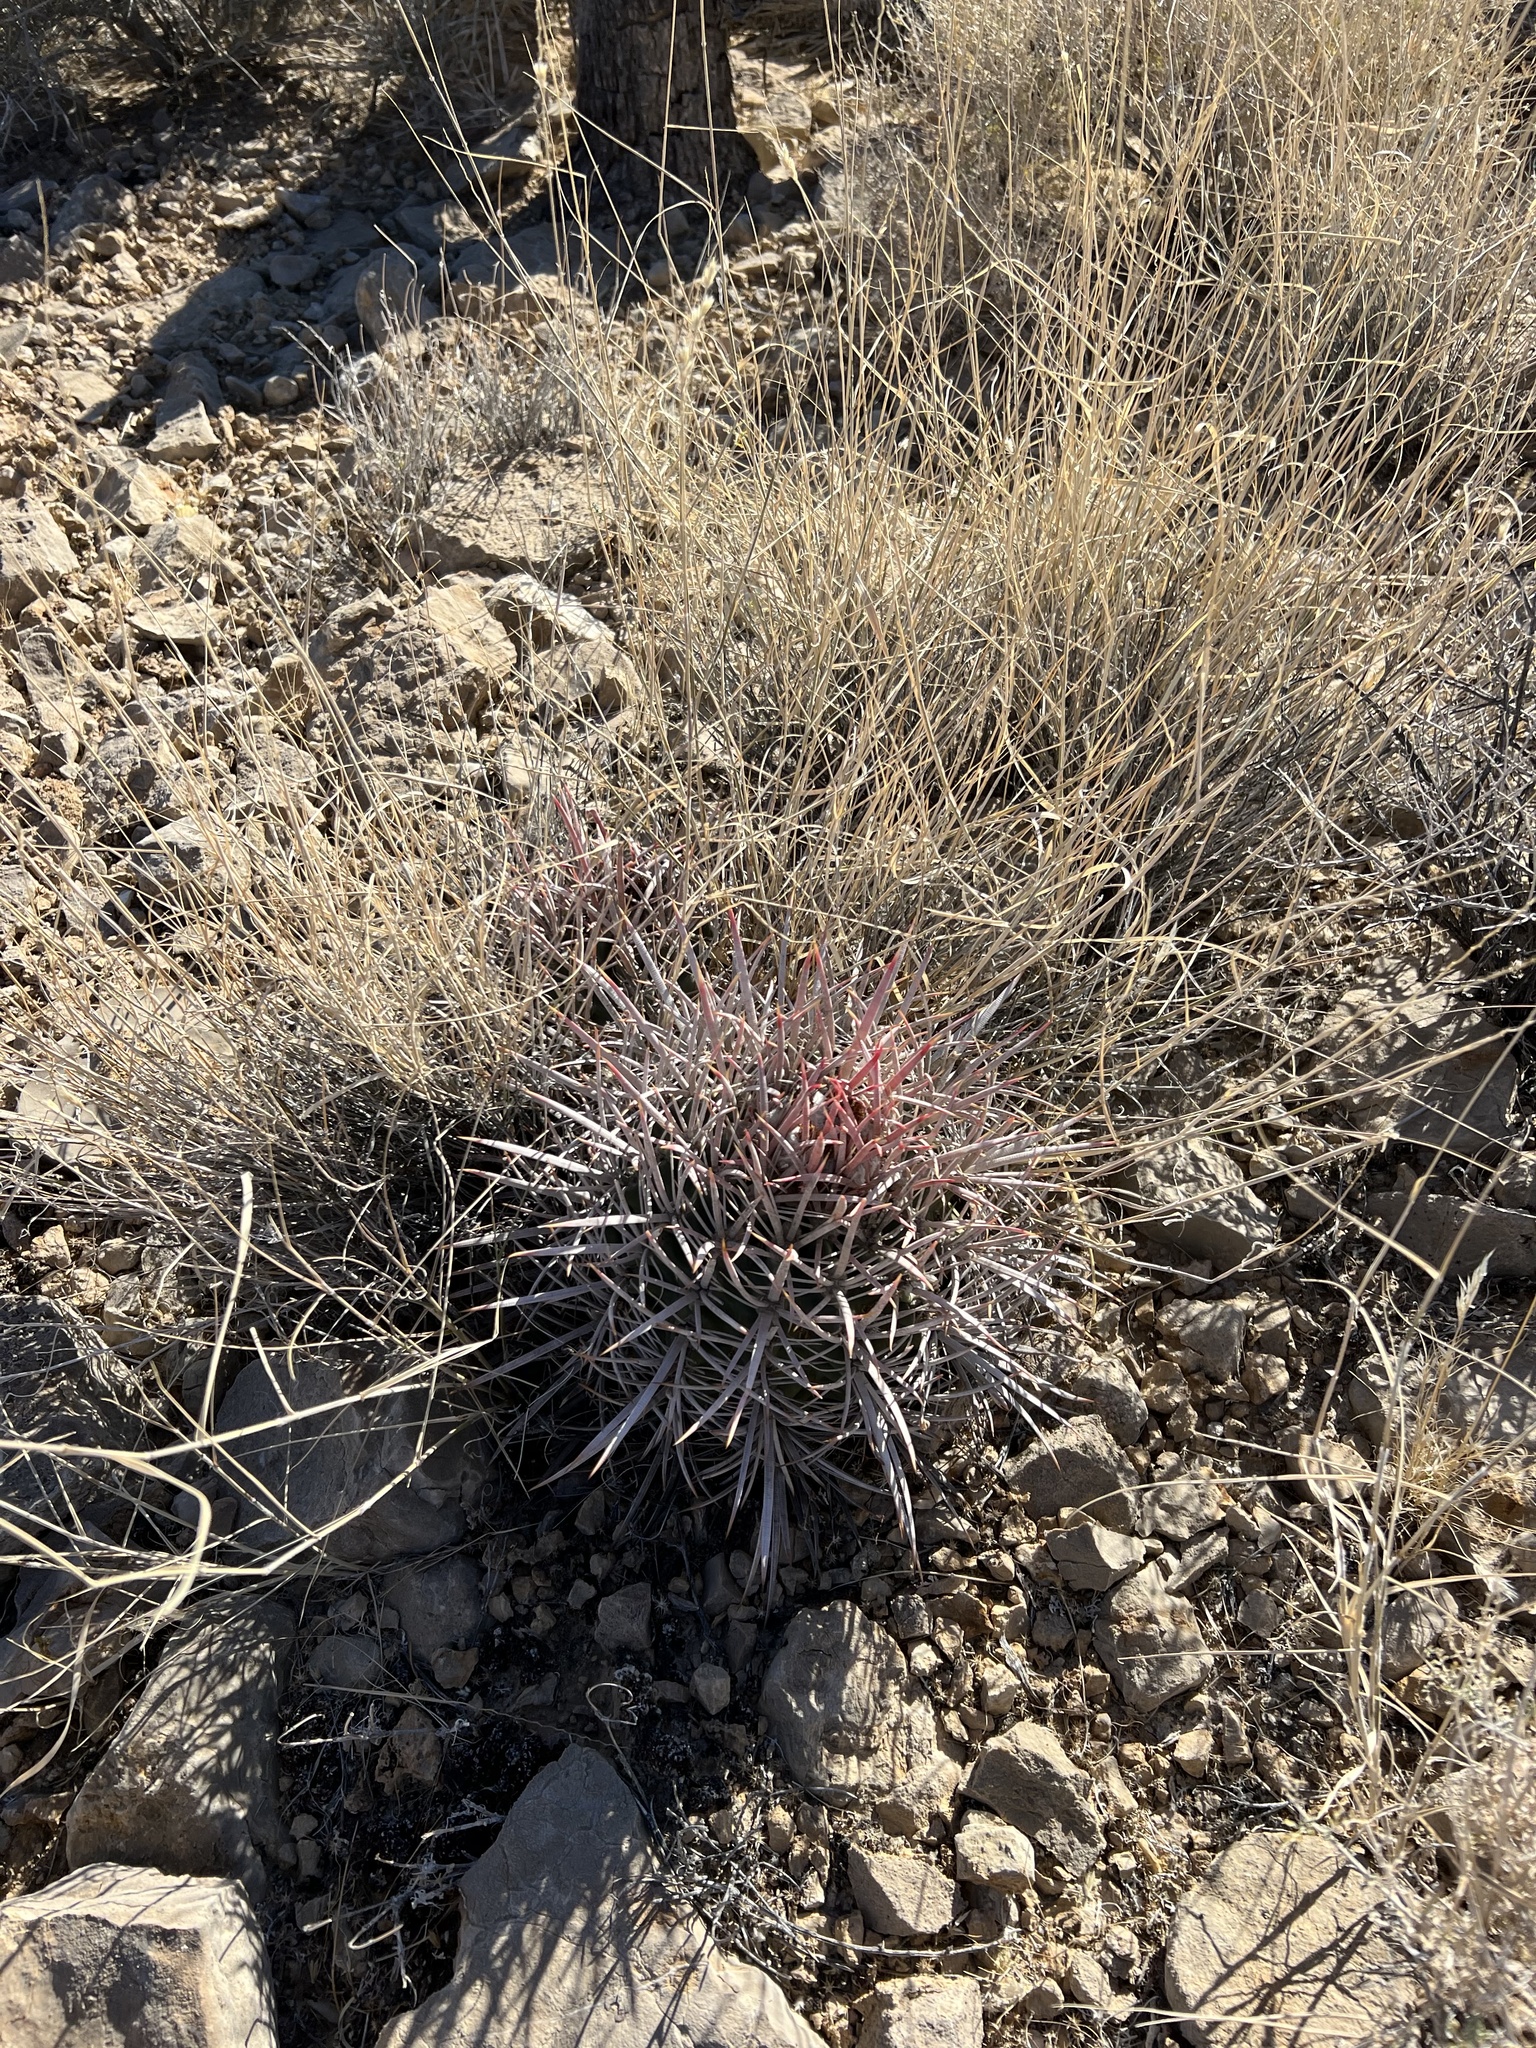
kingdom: Plantae
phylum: Tracheophyta
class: Magnoliopsida
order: Caryophyllales
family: Cactaceae
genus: Echinocactus
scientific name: Echinocactus polycephalus
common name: Cottontop cactus
